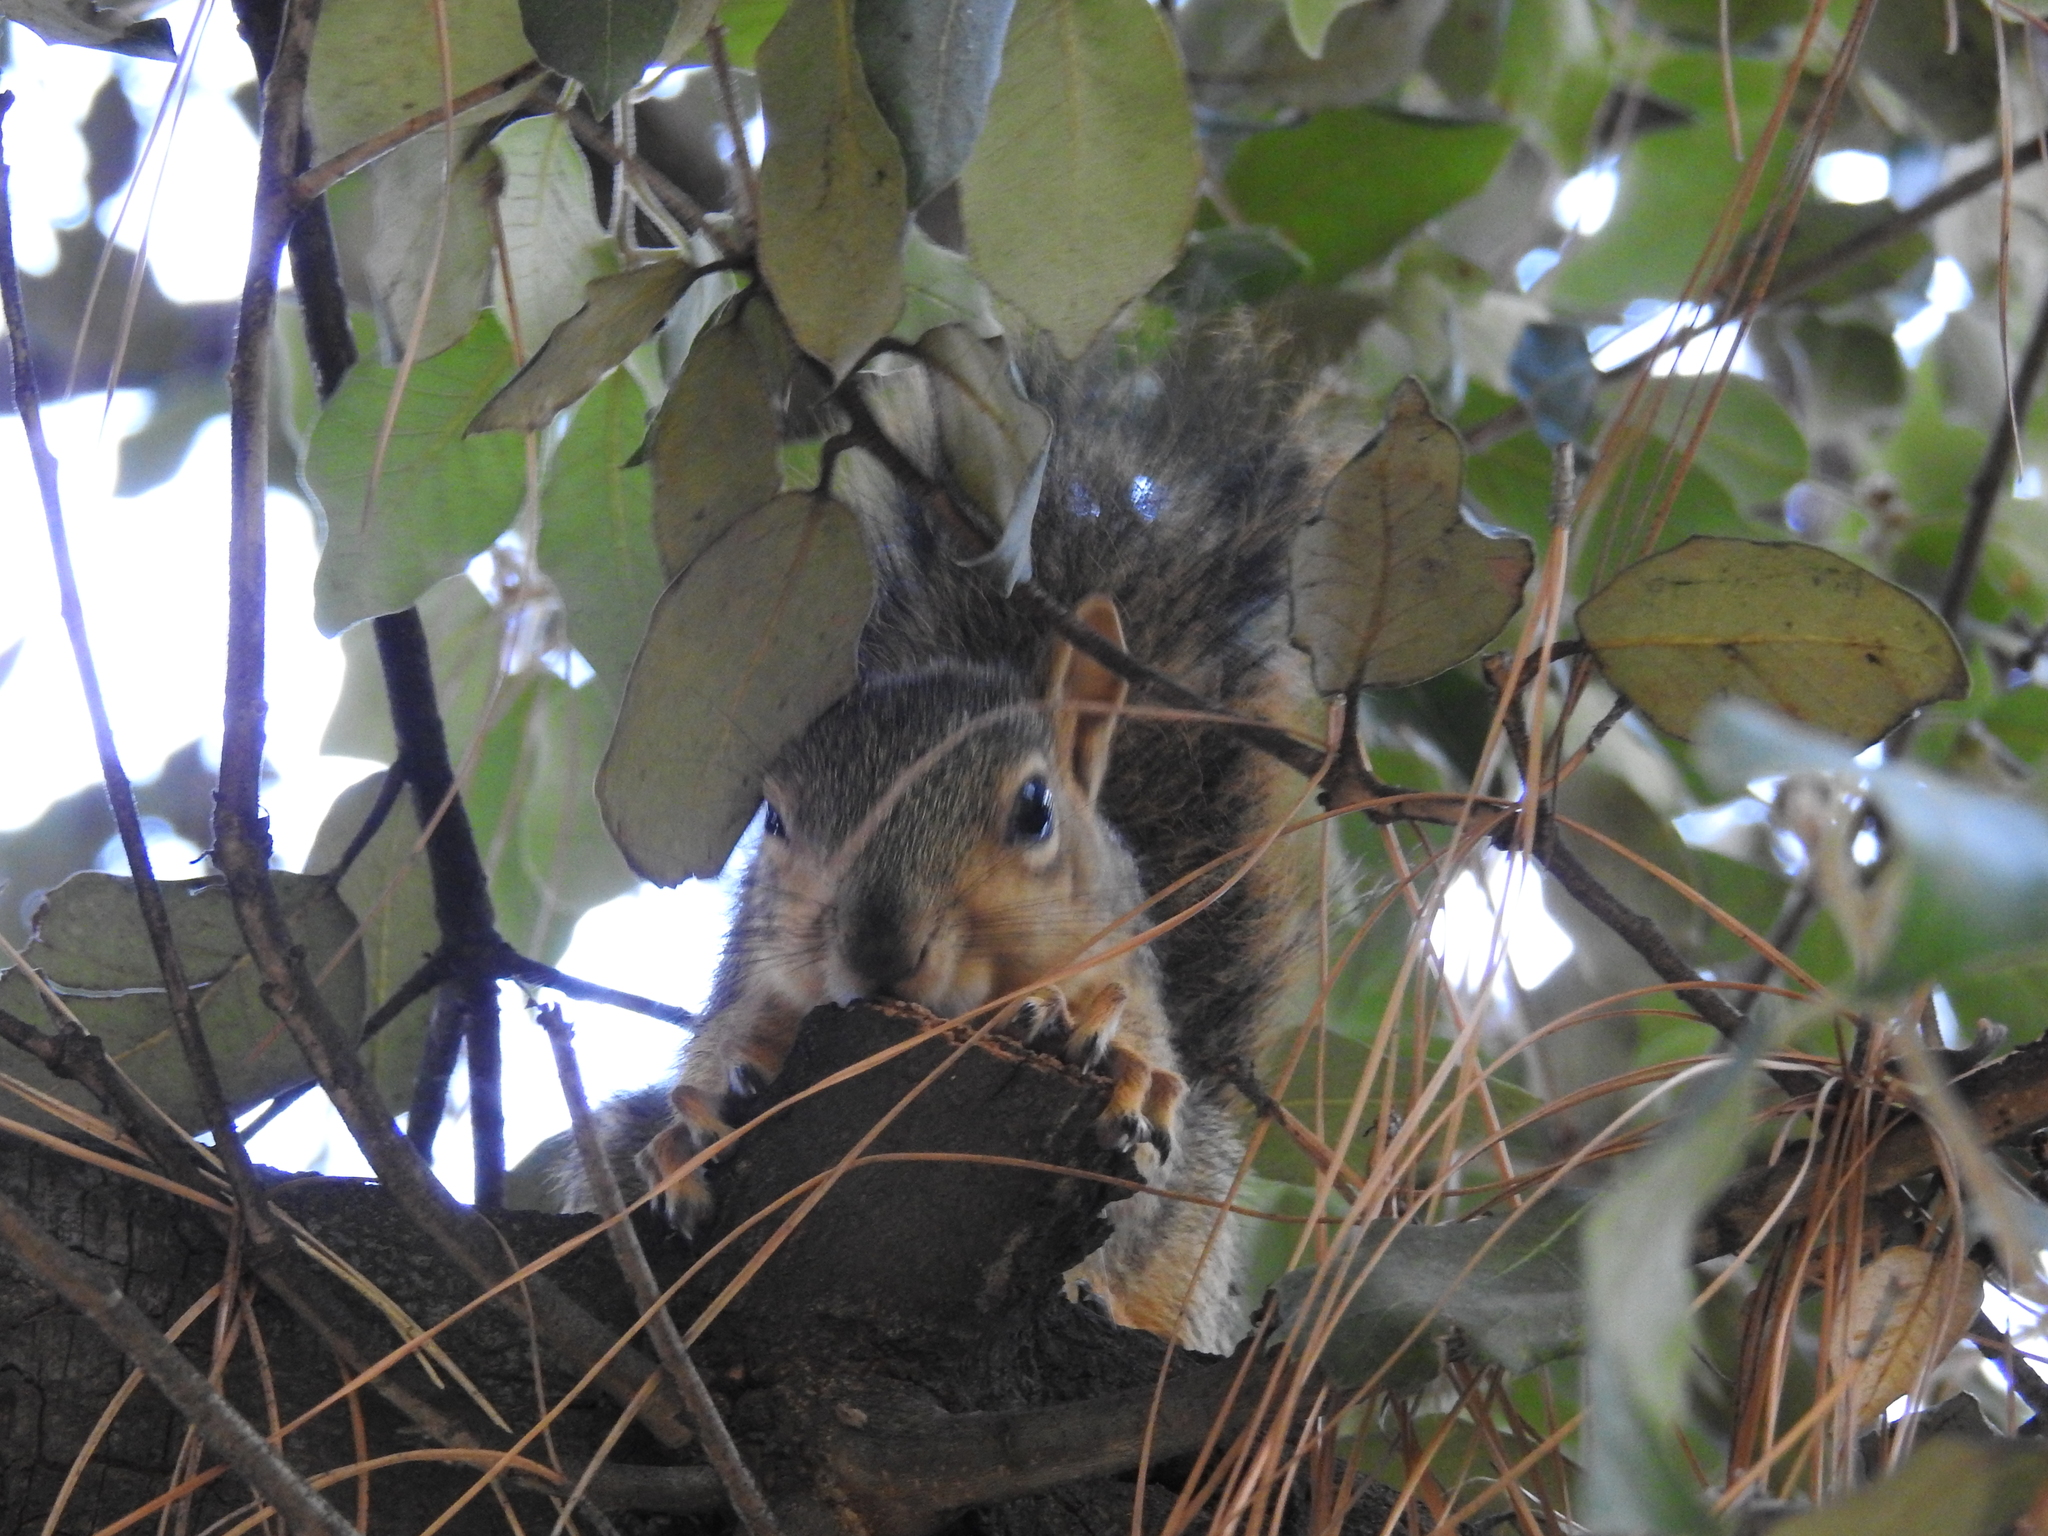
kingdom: Animalia
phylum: Chordata
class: Mammalia
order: Rodentia
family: Sciuridae
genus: Sciurus
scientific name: Sciurus niger
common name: Fox squirrel
